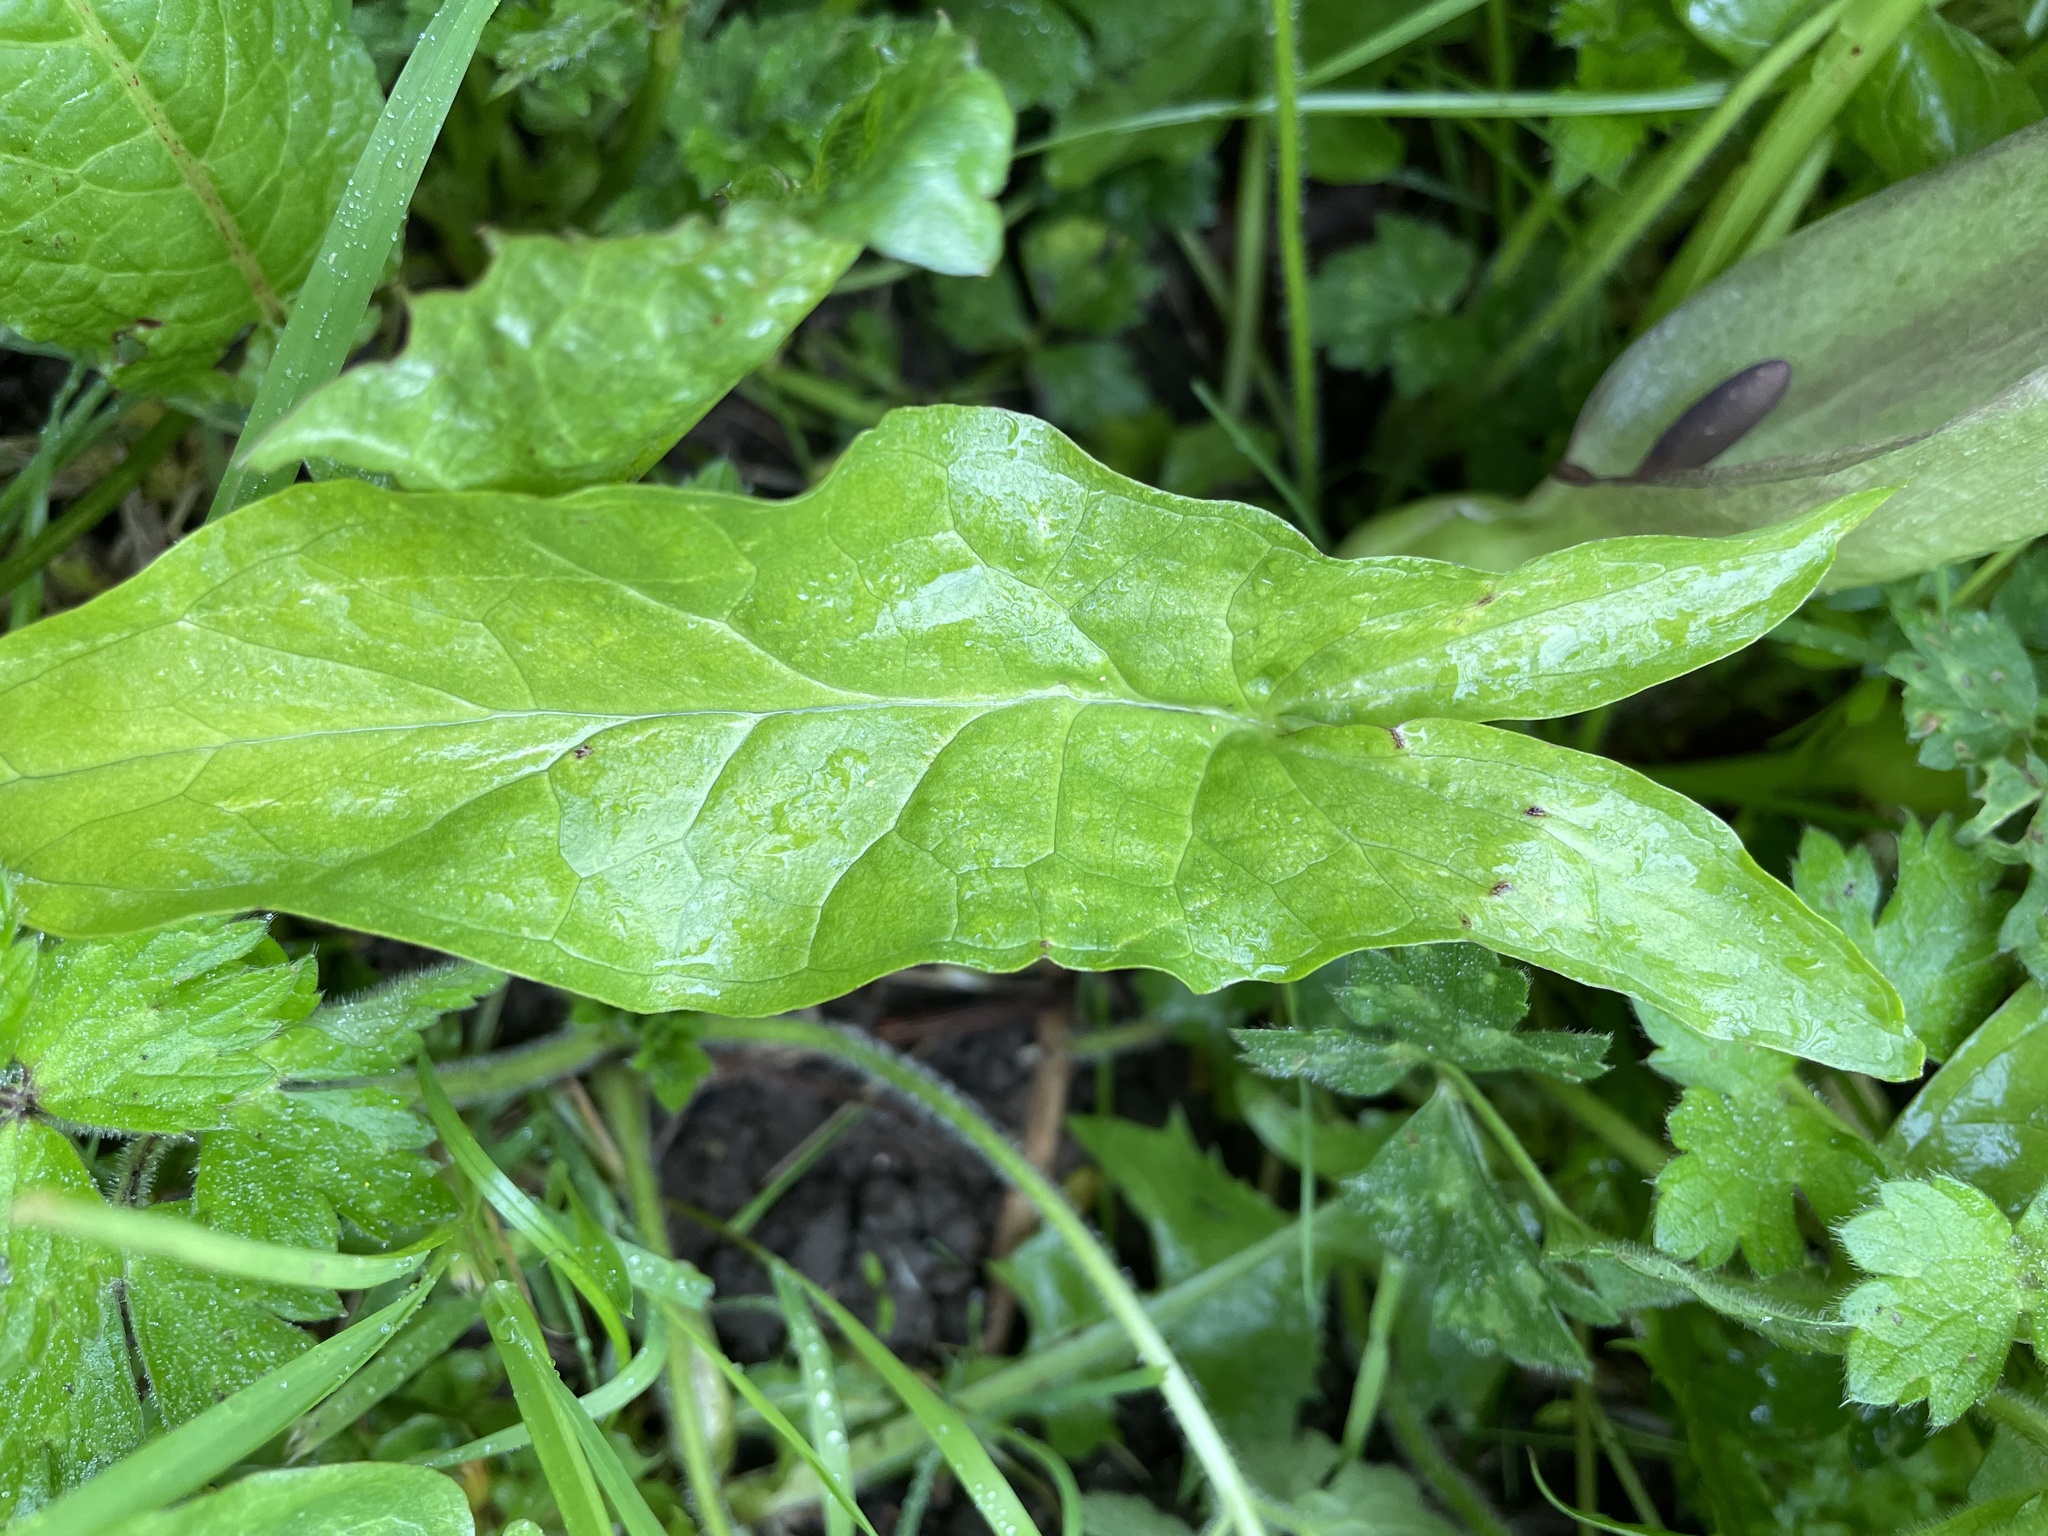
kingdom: Plantae
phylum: Tracheophyta
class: Liliopsida
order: Alismatales
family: Araceae
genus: Arum
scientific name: Arum maculatum
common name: Lords-and-ladies
